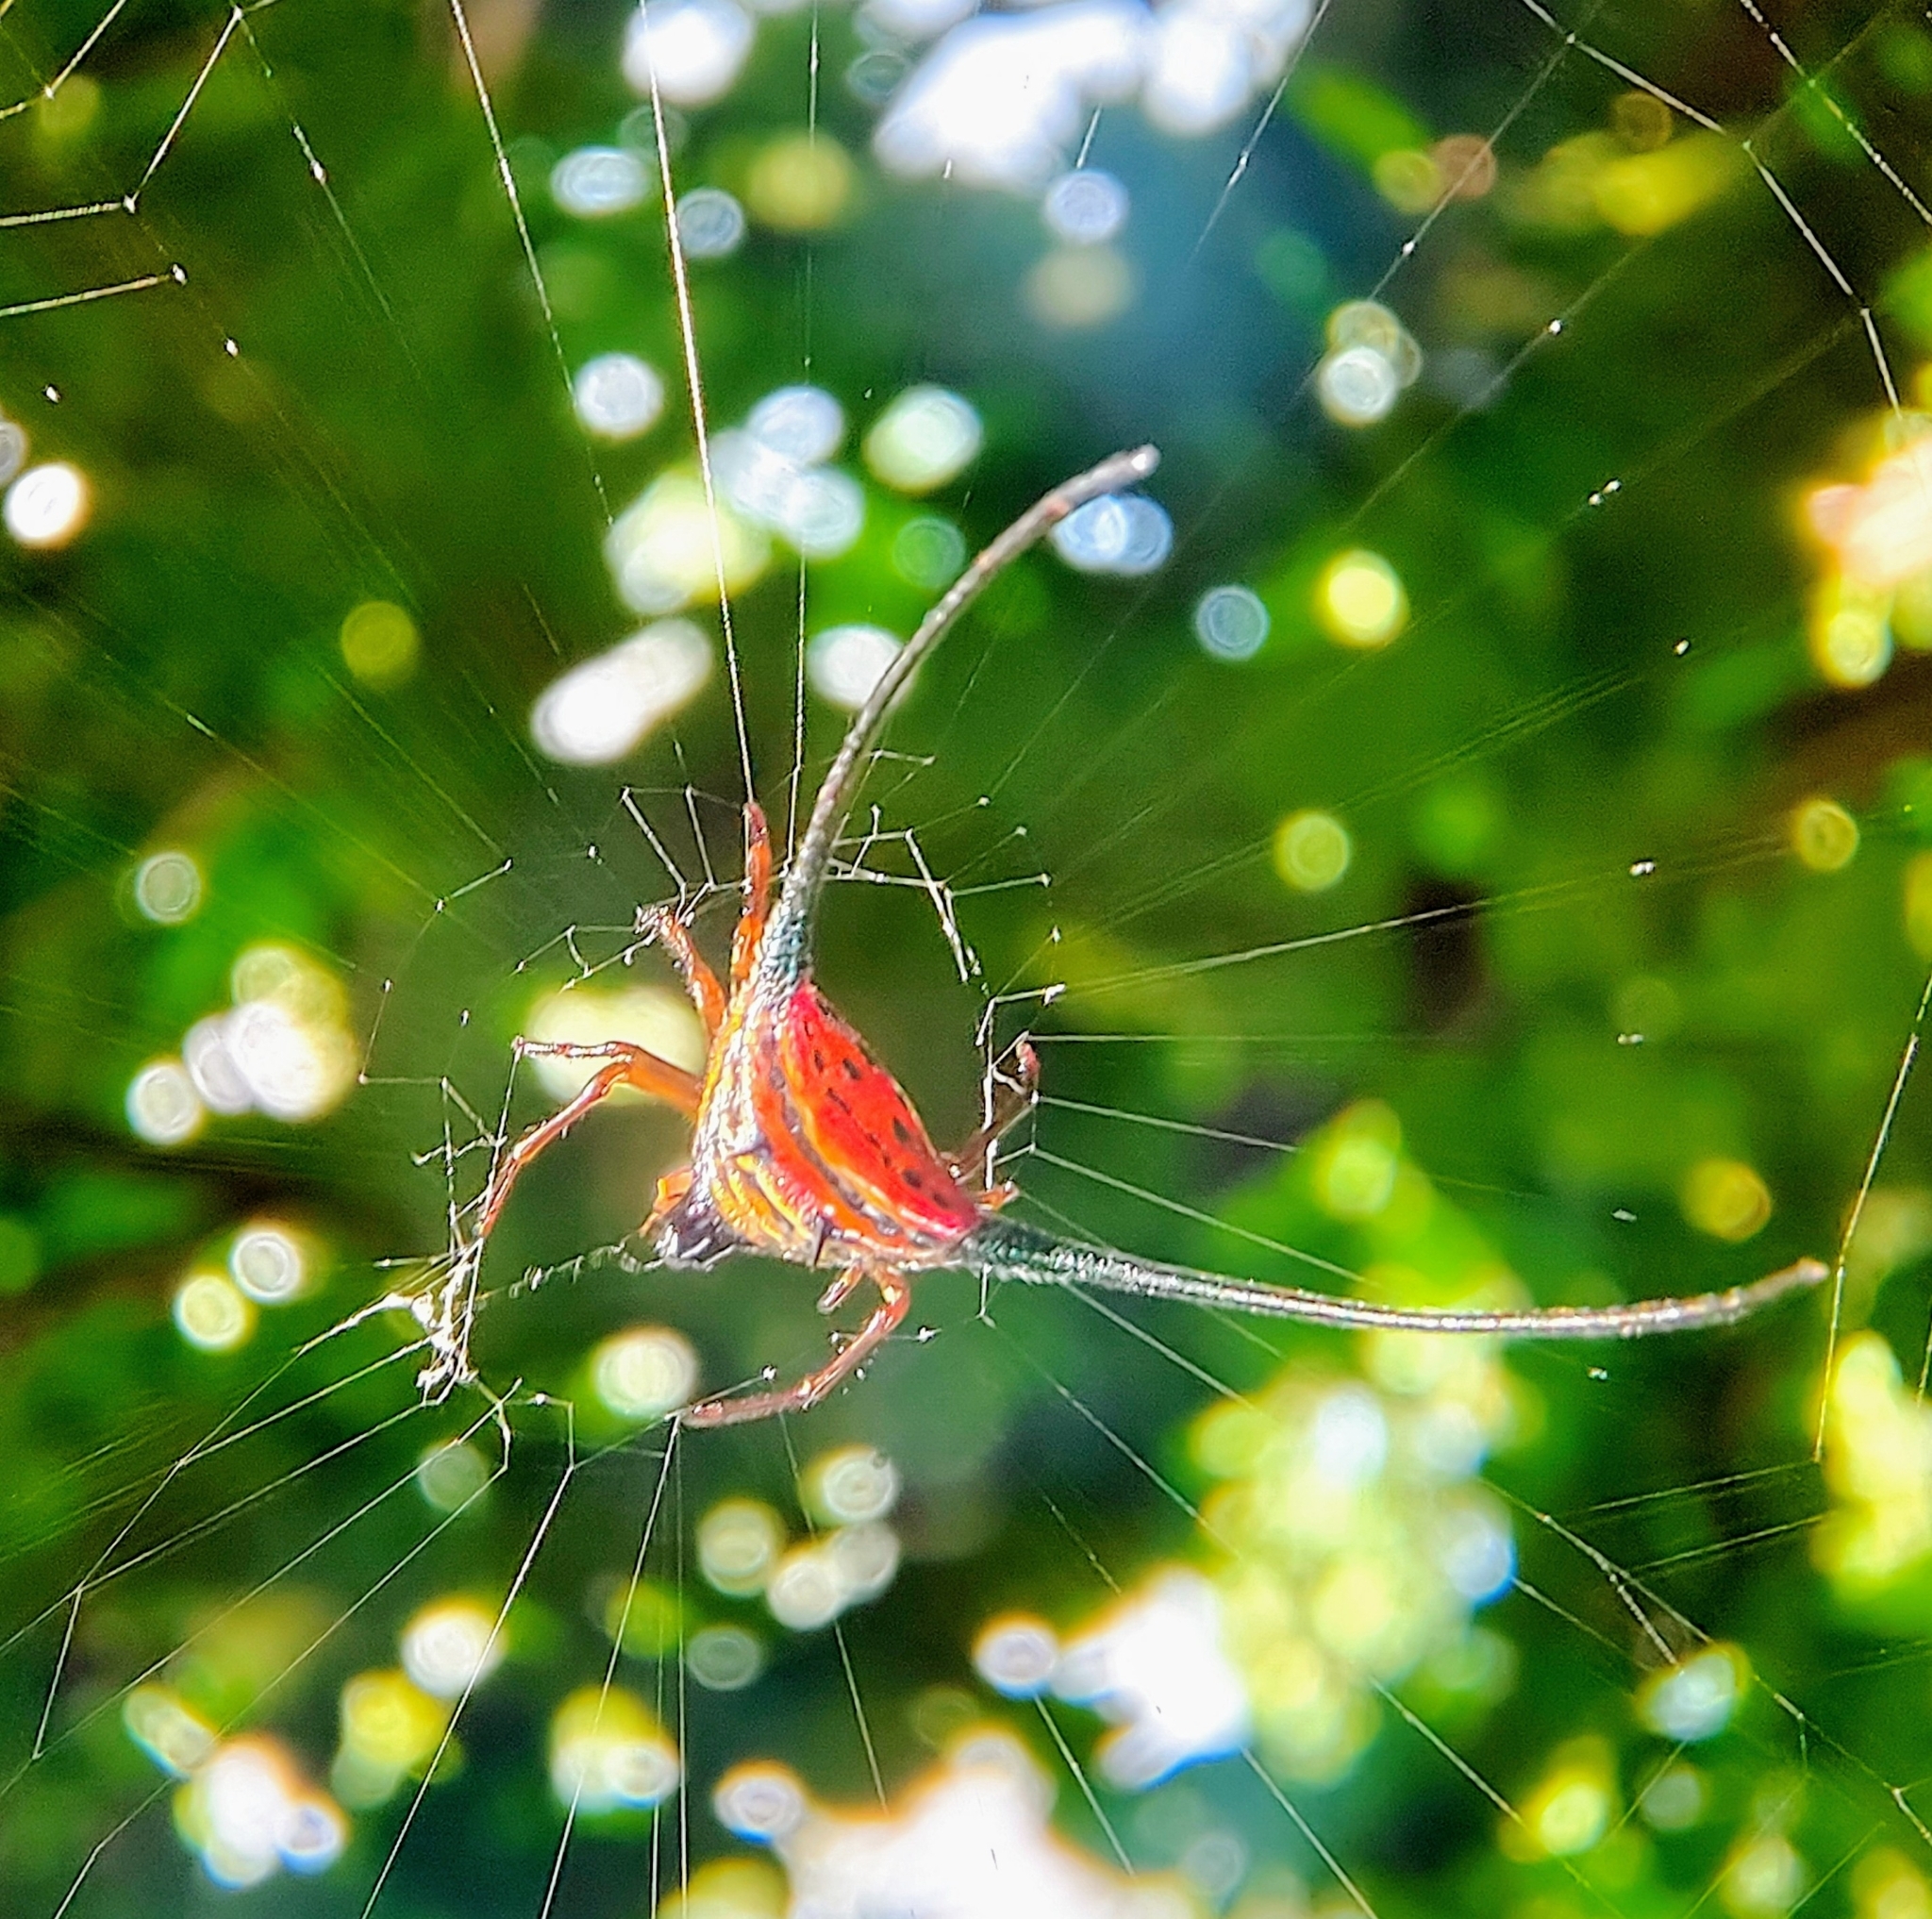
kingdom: Animalia
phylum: Arthropoda
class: Arachnida
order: Araneae
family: Araneidae
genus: Macracantha
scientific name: Macracantha arcuata
